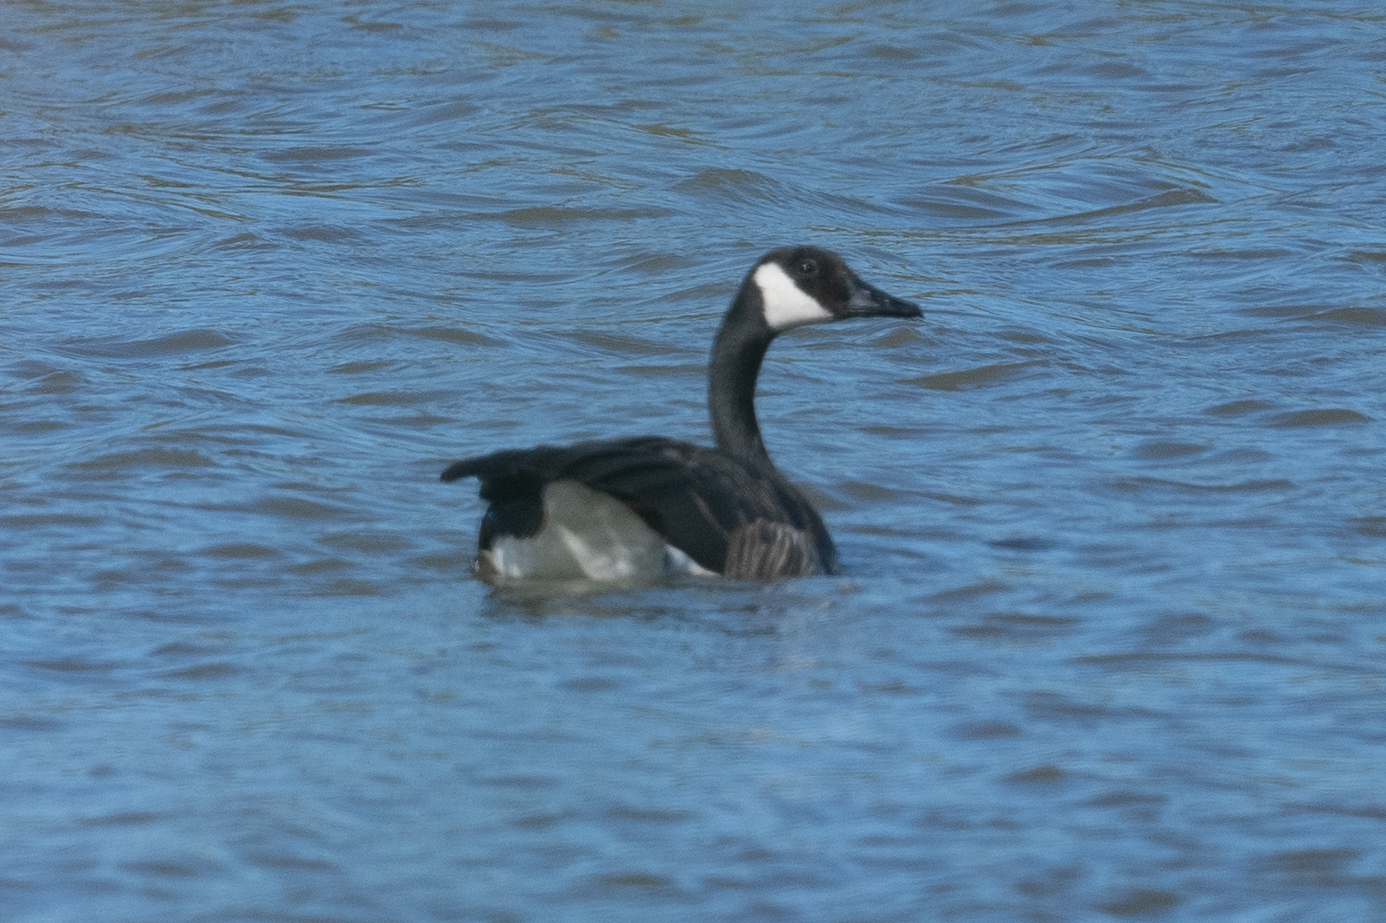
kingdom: Animalia
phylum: Chordata
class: Aves
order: Anseriformes
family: Anatidae
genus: Branta
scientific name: Branta canadensis
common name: Canada goose
